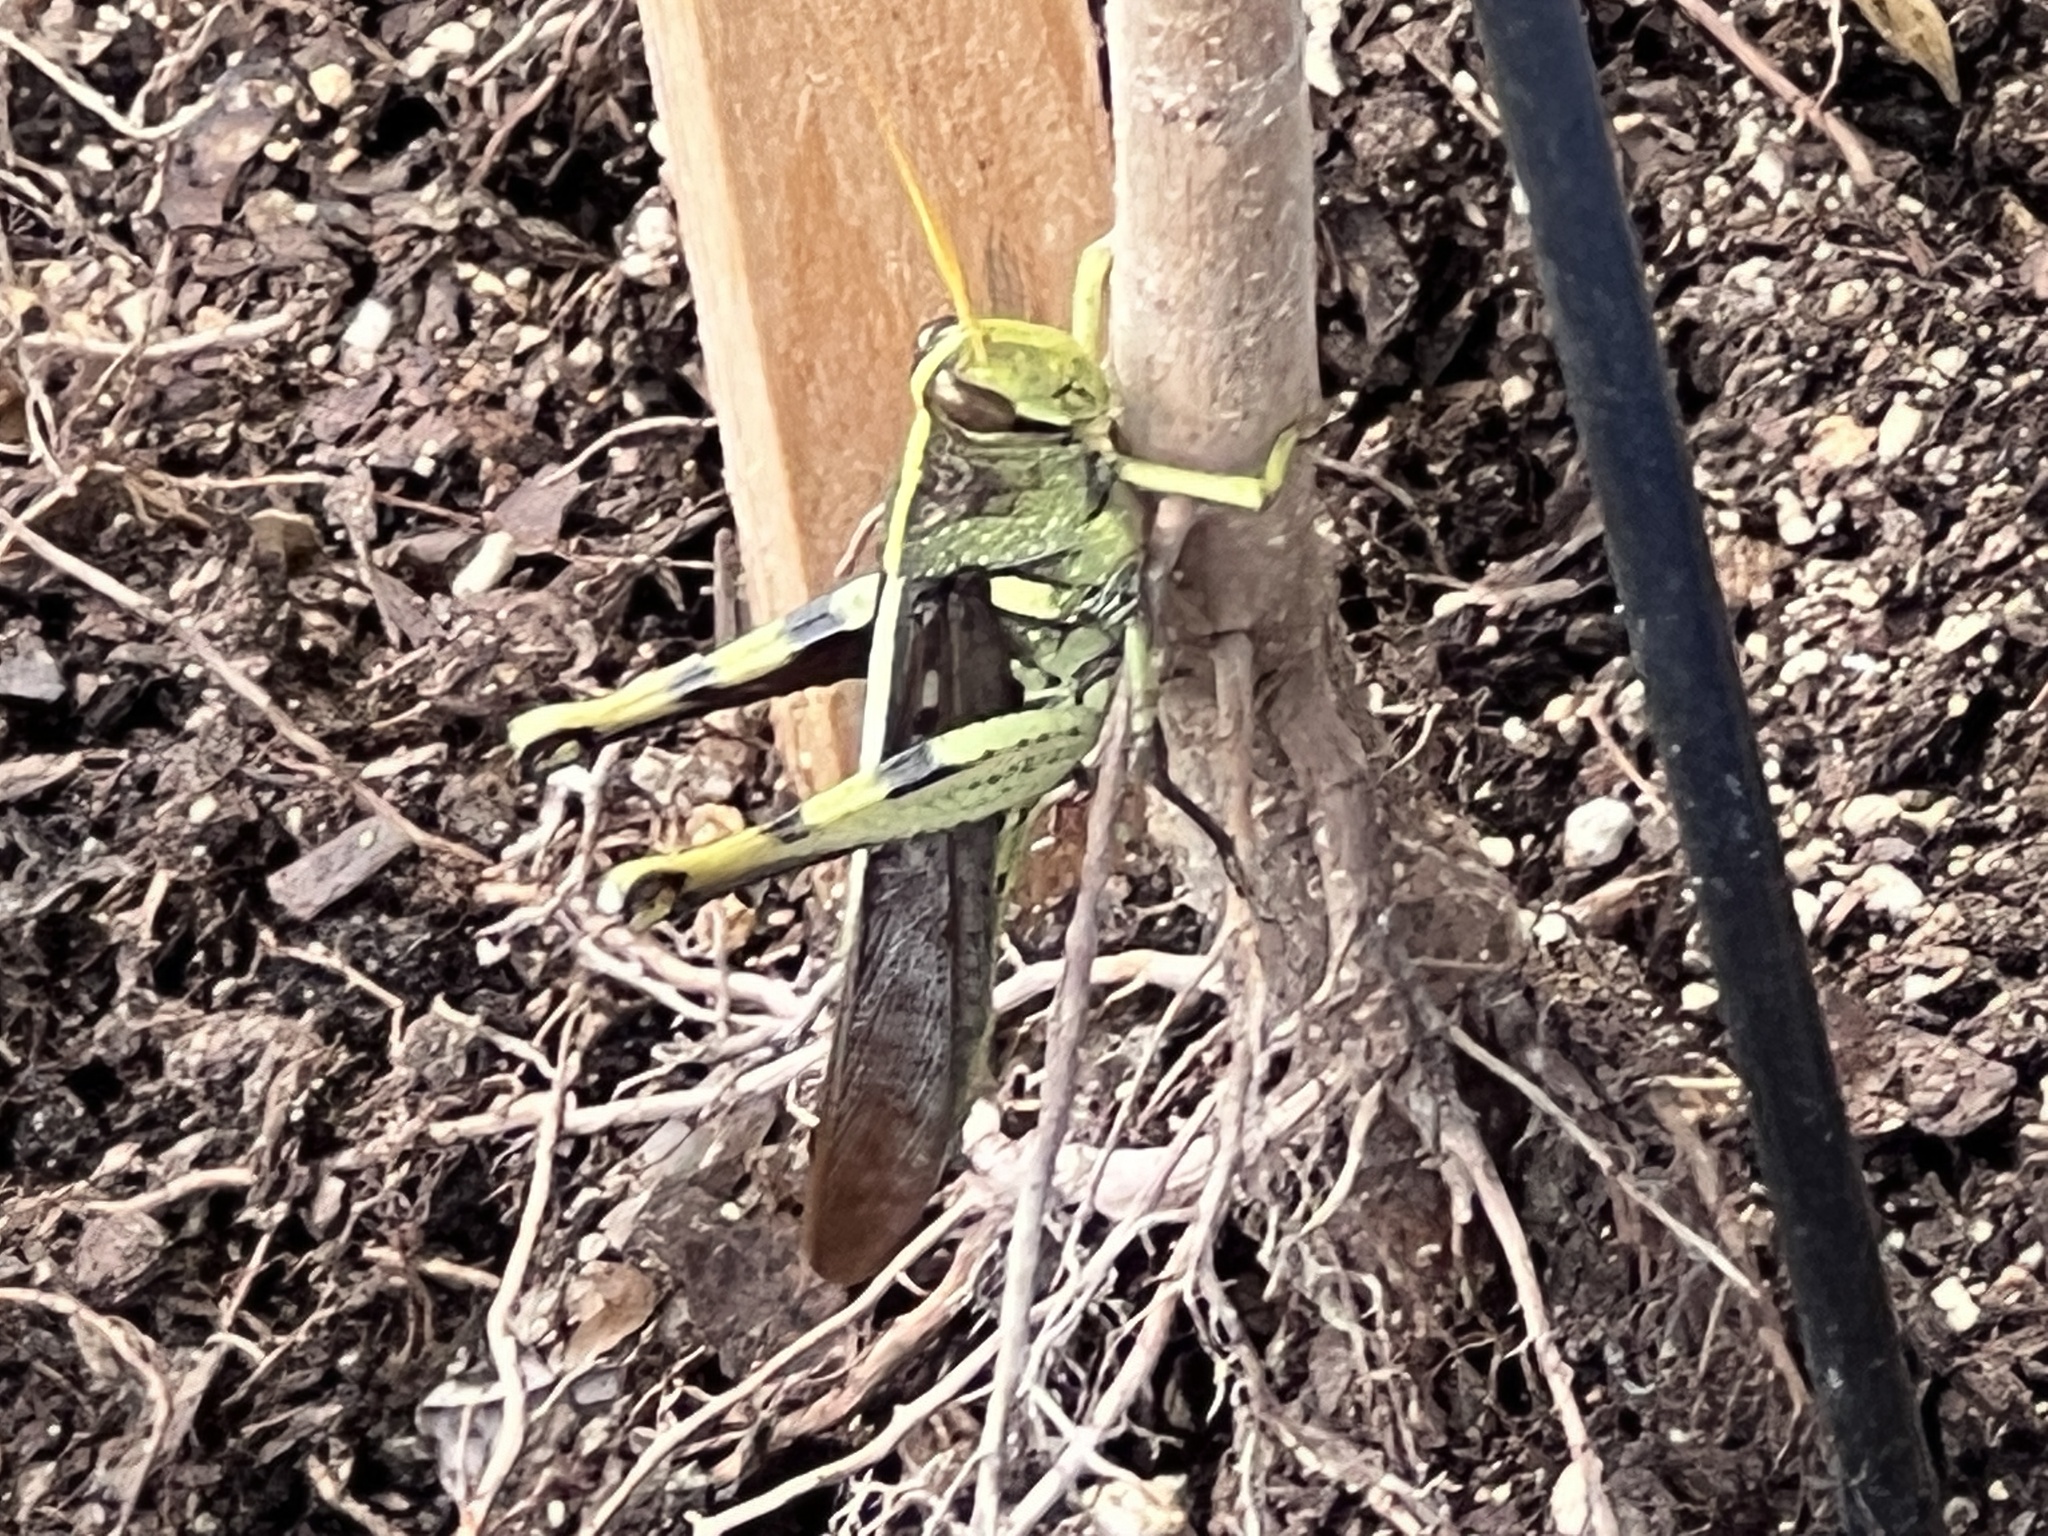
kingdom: Animalia
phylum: Arthropoda
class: Insecta
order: Orthoptera
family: Acrididae
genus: Schistocerca
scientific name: Schistocerca obscura
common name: Obscure bird grasshopper
